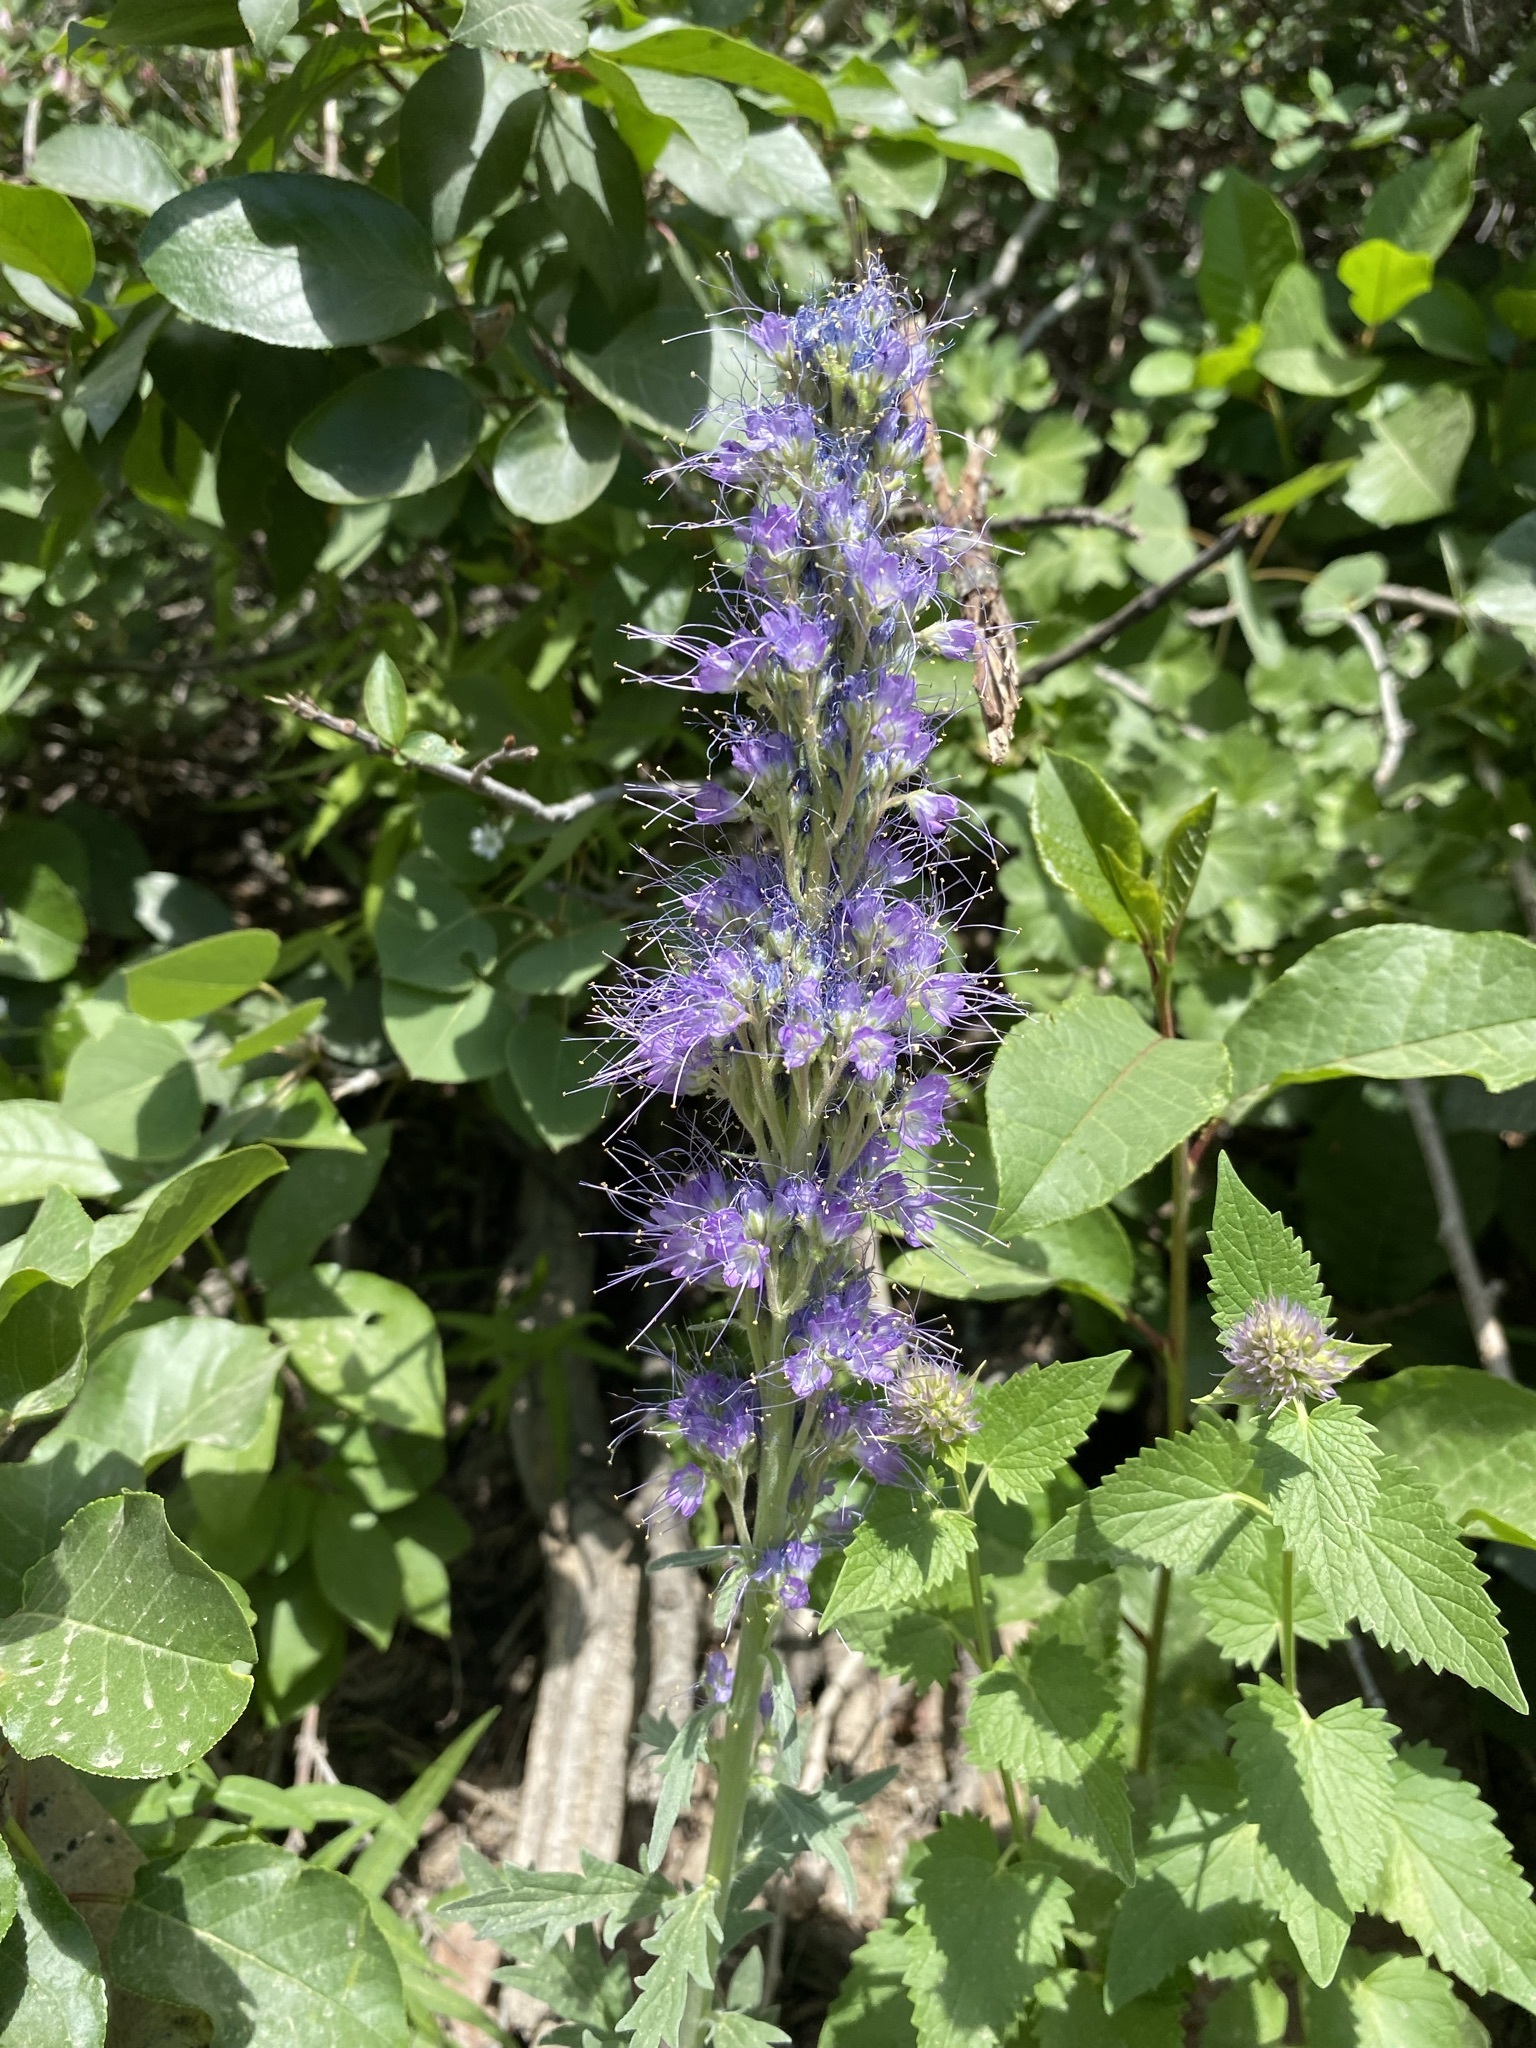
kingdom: Plantae
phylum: Tracheophyta
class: Magnoliopsida
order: Boraginales
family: Hydrophyllaceae
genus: Phacelia
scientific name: Phacelia sericea
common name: Silky phacelia
